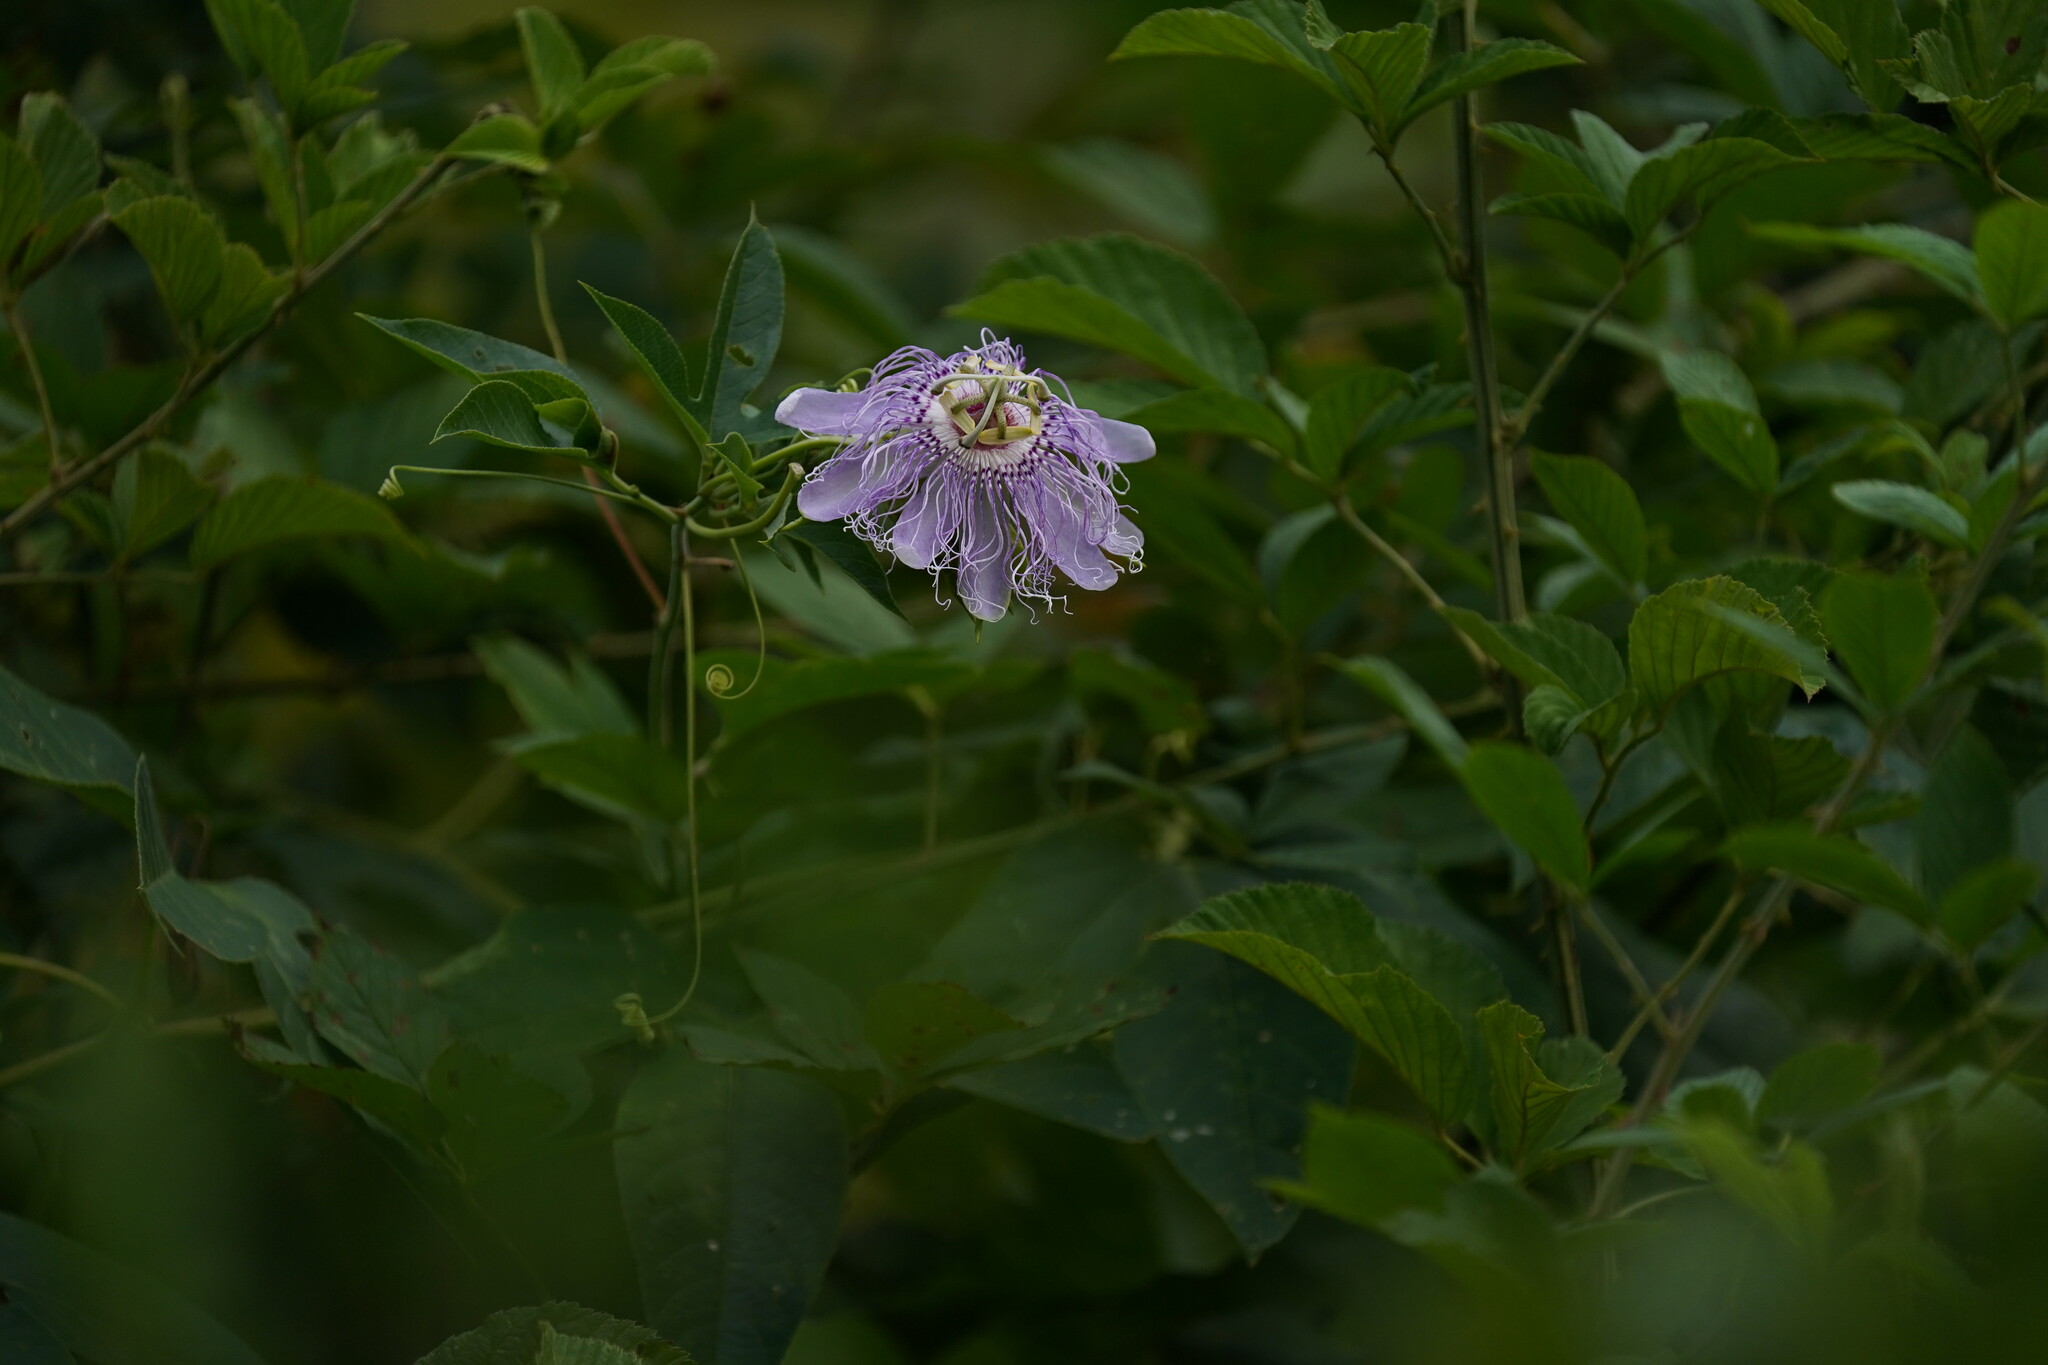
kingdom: Plantae
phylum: Tracheophyta
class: Magnoliopsida
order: Malpighiales
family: Passifloraceae
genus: Passiflora
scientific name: Passiflora incarnata
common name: Apricot-vine
